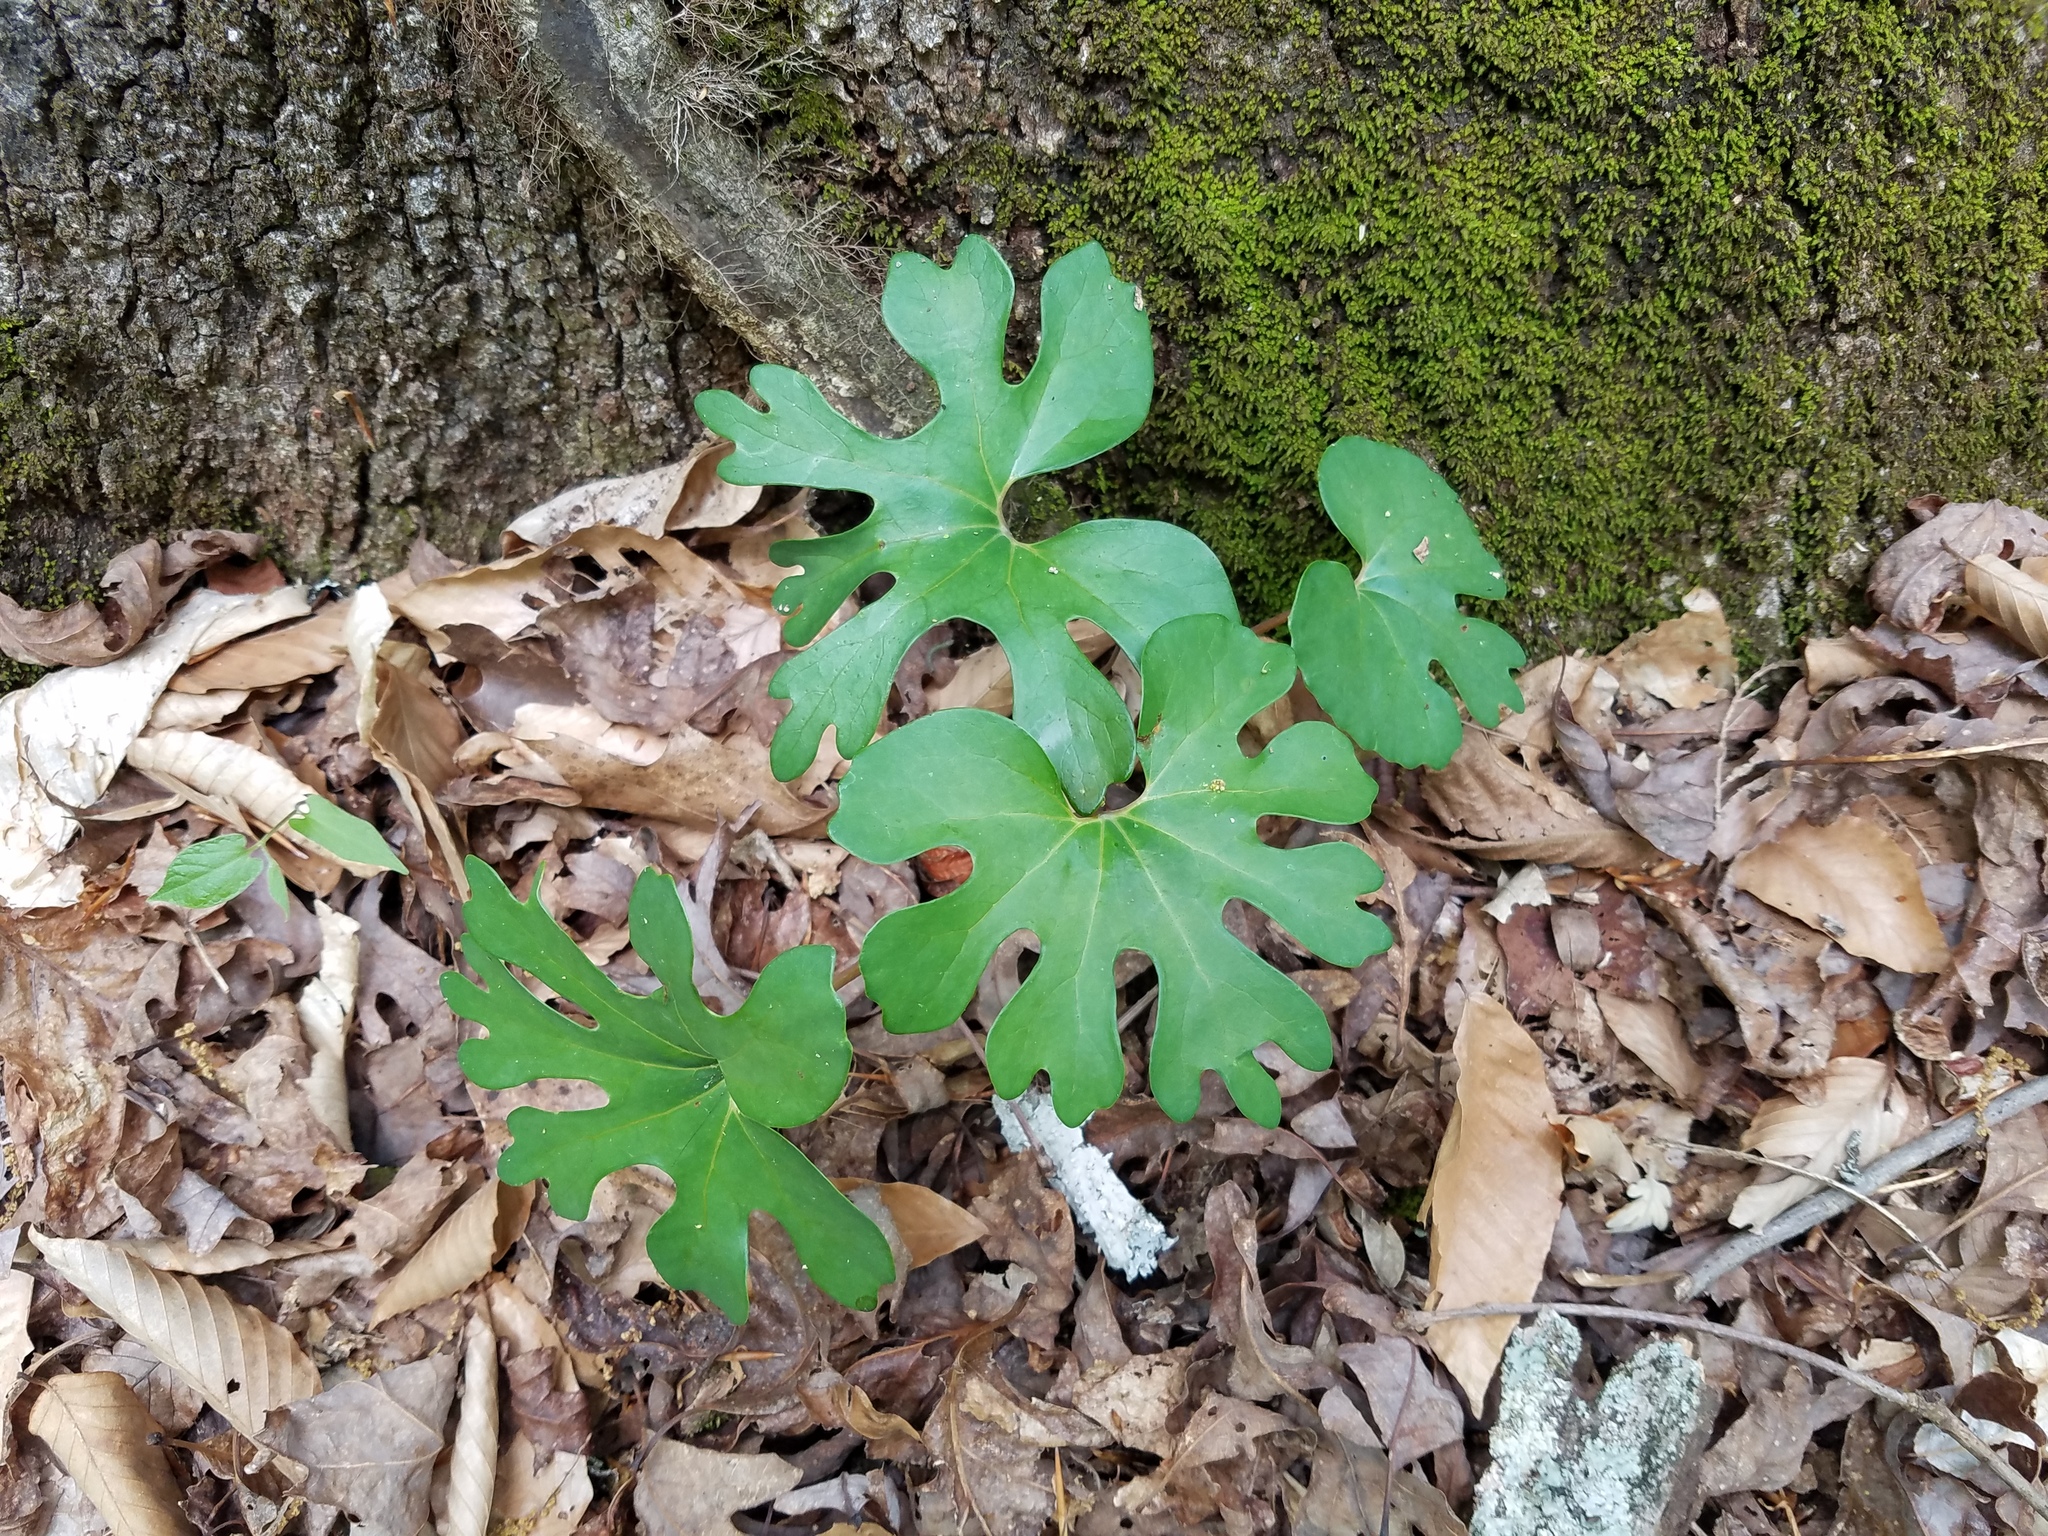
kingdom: Plantae
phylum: Tracheophyta
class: Magnoliopsida
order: Ranunculales
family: Papaveraceae
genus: Sanguinaria
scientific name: Sanguinaria canadensis
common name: Bloodroot
